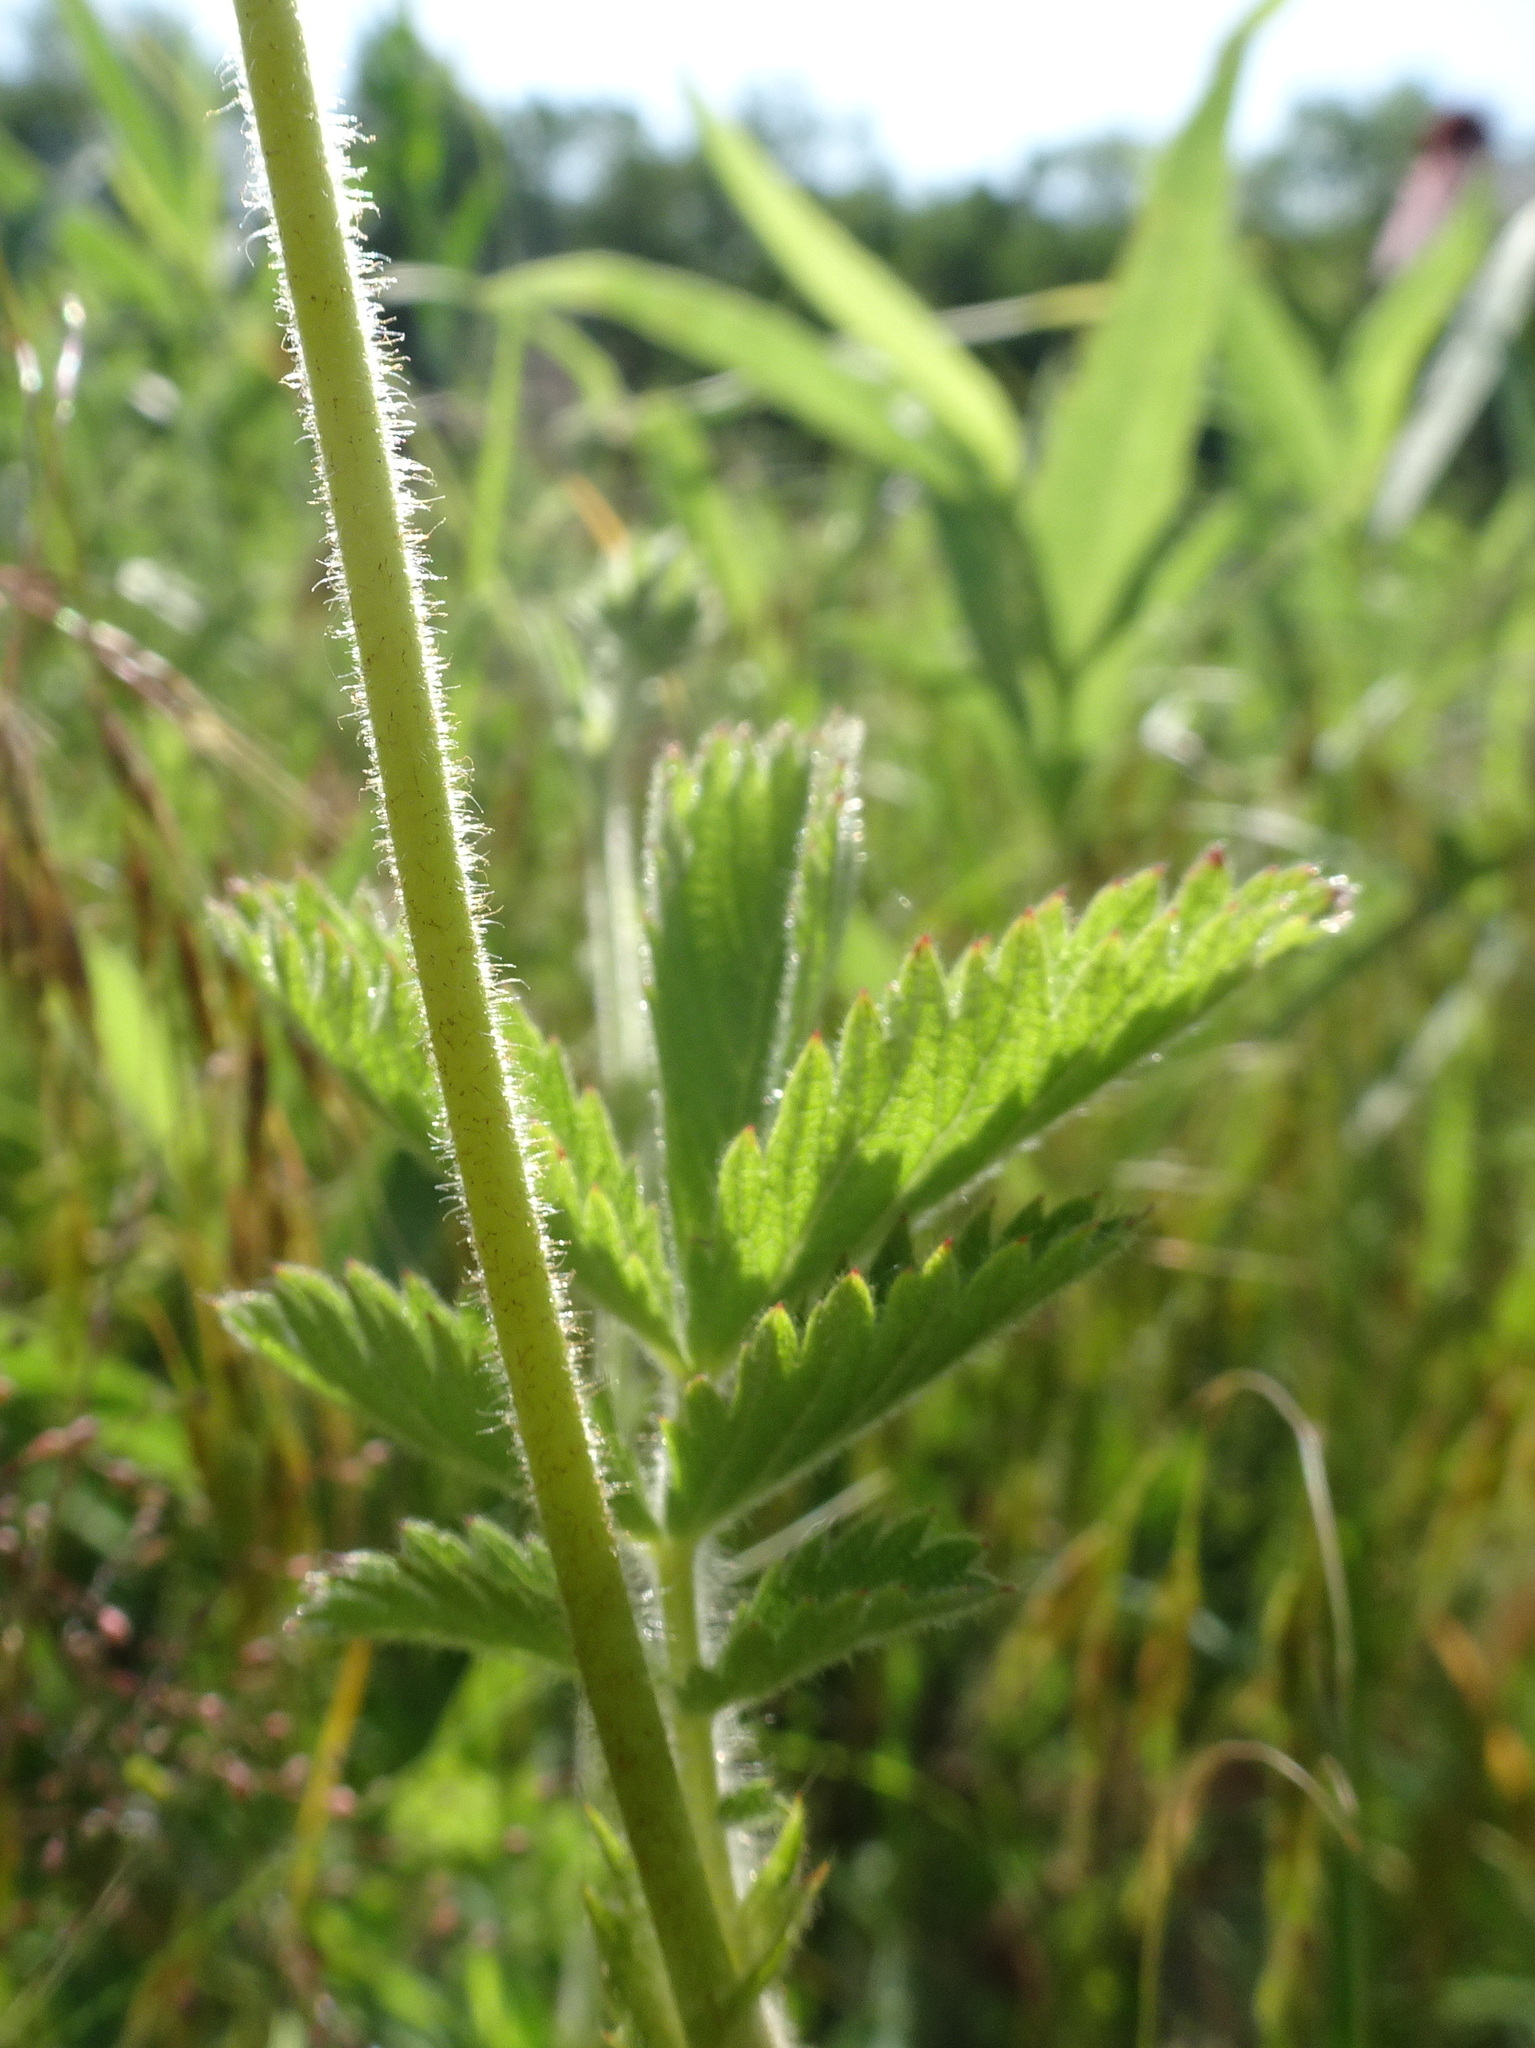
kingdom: Plantae
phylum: Tracheophyta
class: Magnoliopsida
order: Rosales
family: Rosaceae
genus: Drymocallis
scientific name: Drymocallis arguta
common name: Tall cinquefoil
